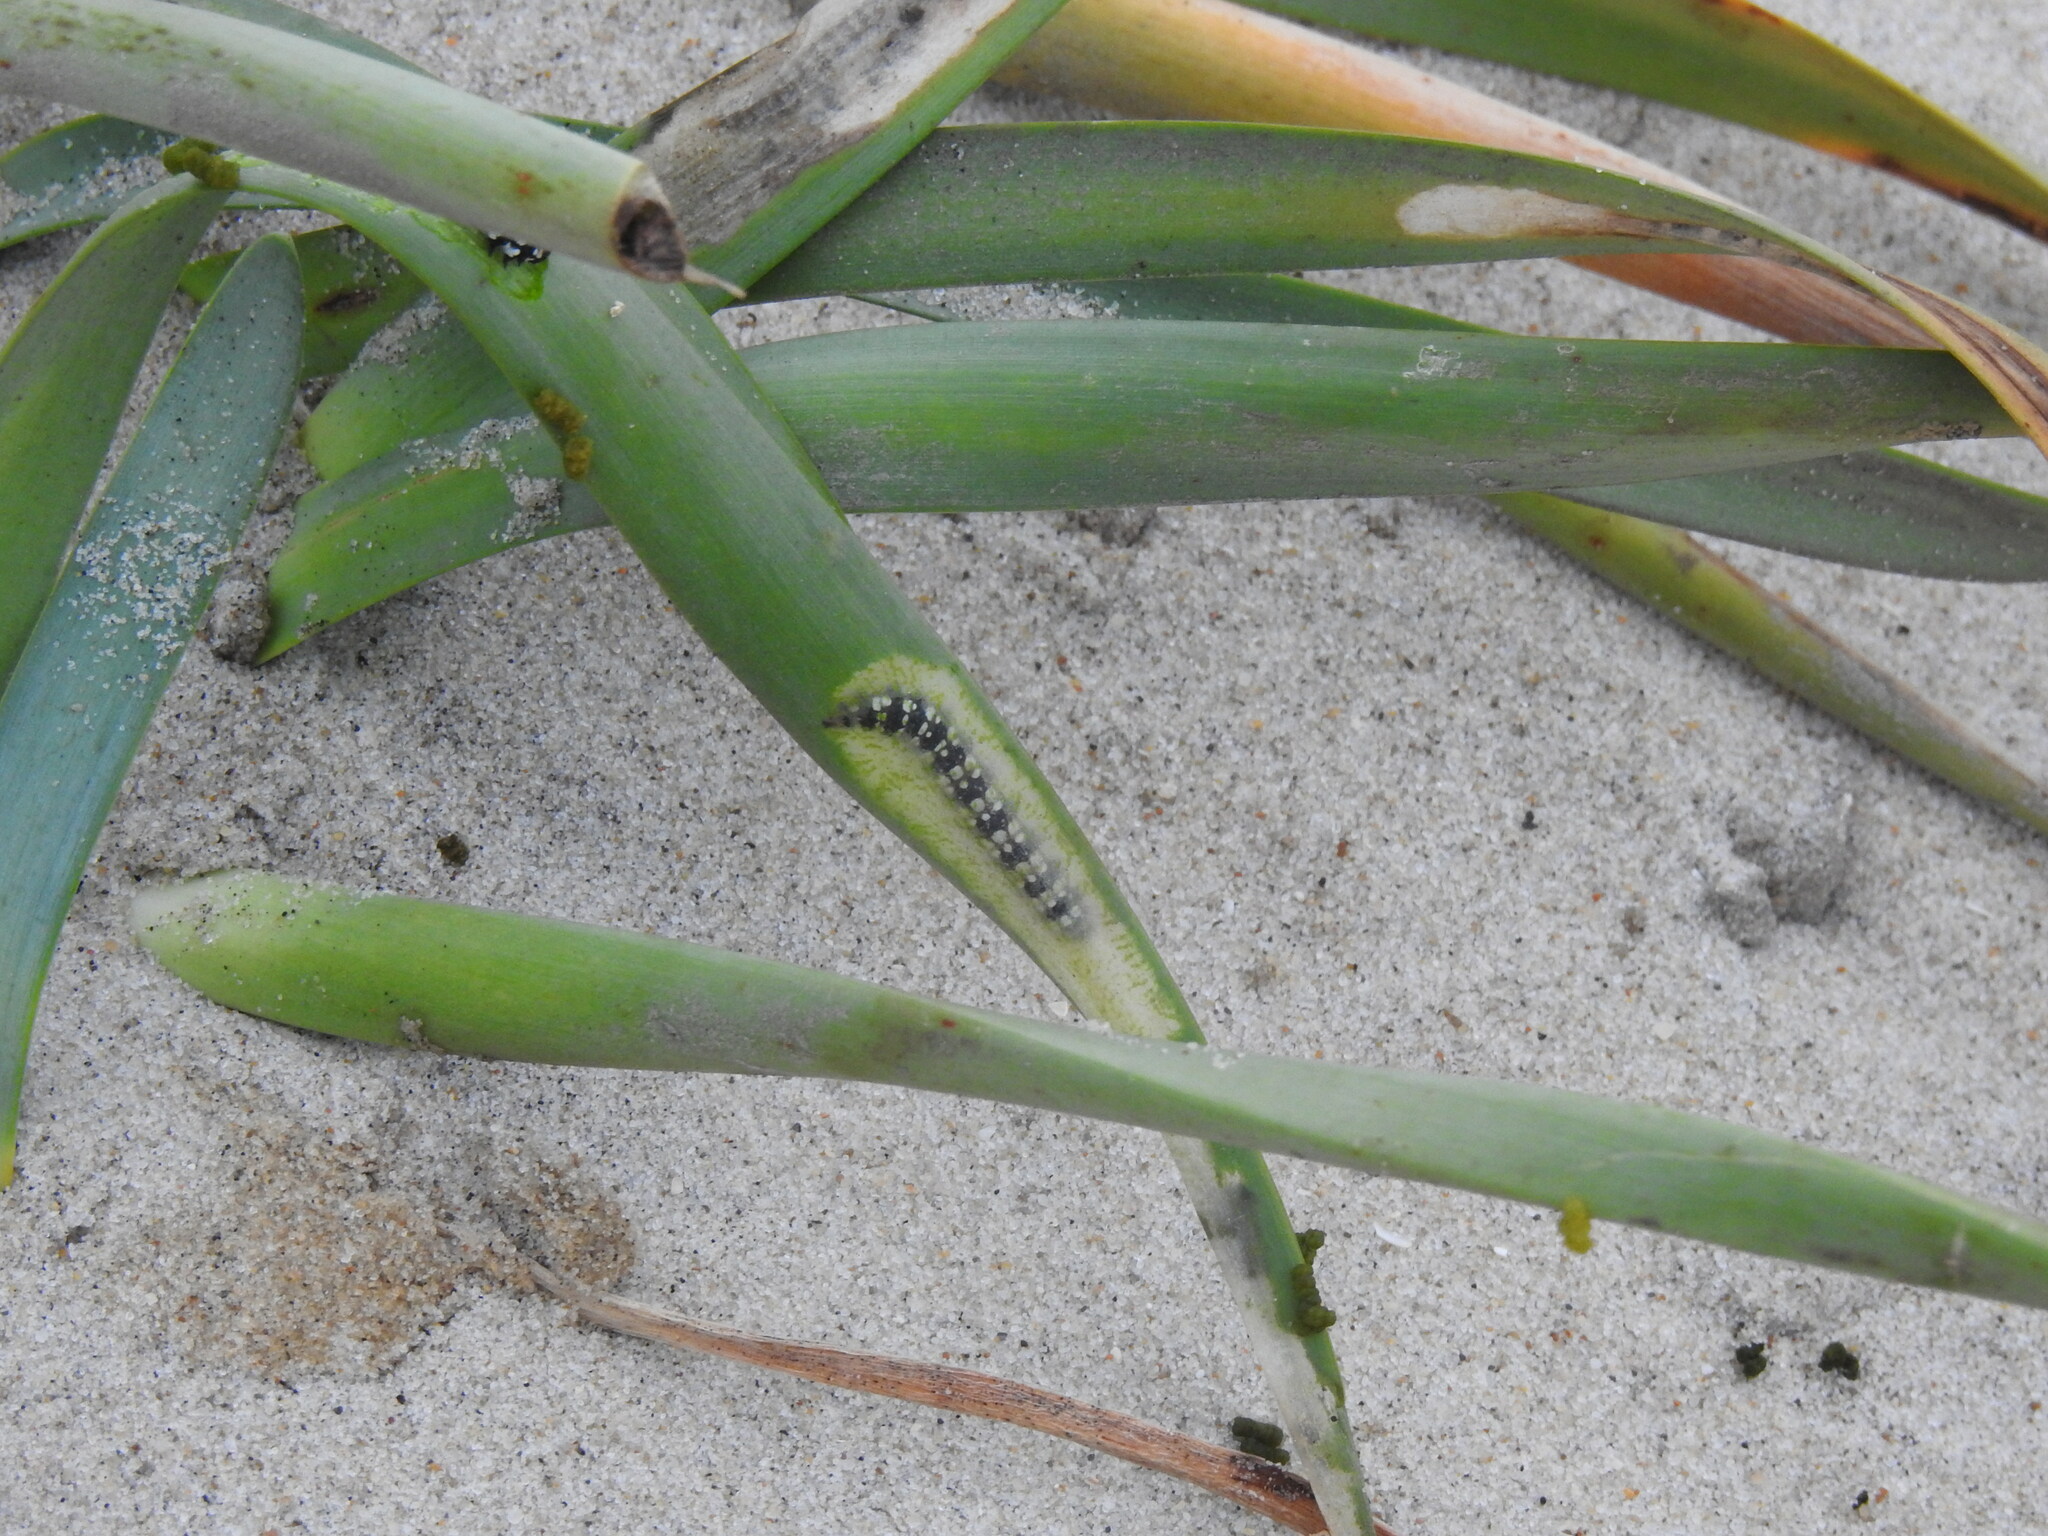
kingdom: Animalia
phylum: Arthropoda
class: Insecta
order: Lepidoptera
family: Noctuidae
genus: Brithys
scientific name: Brithys crini
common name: Kew arches
